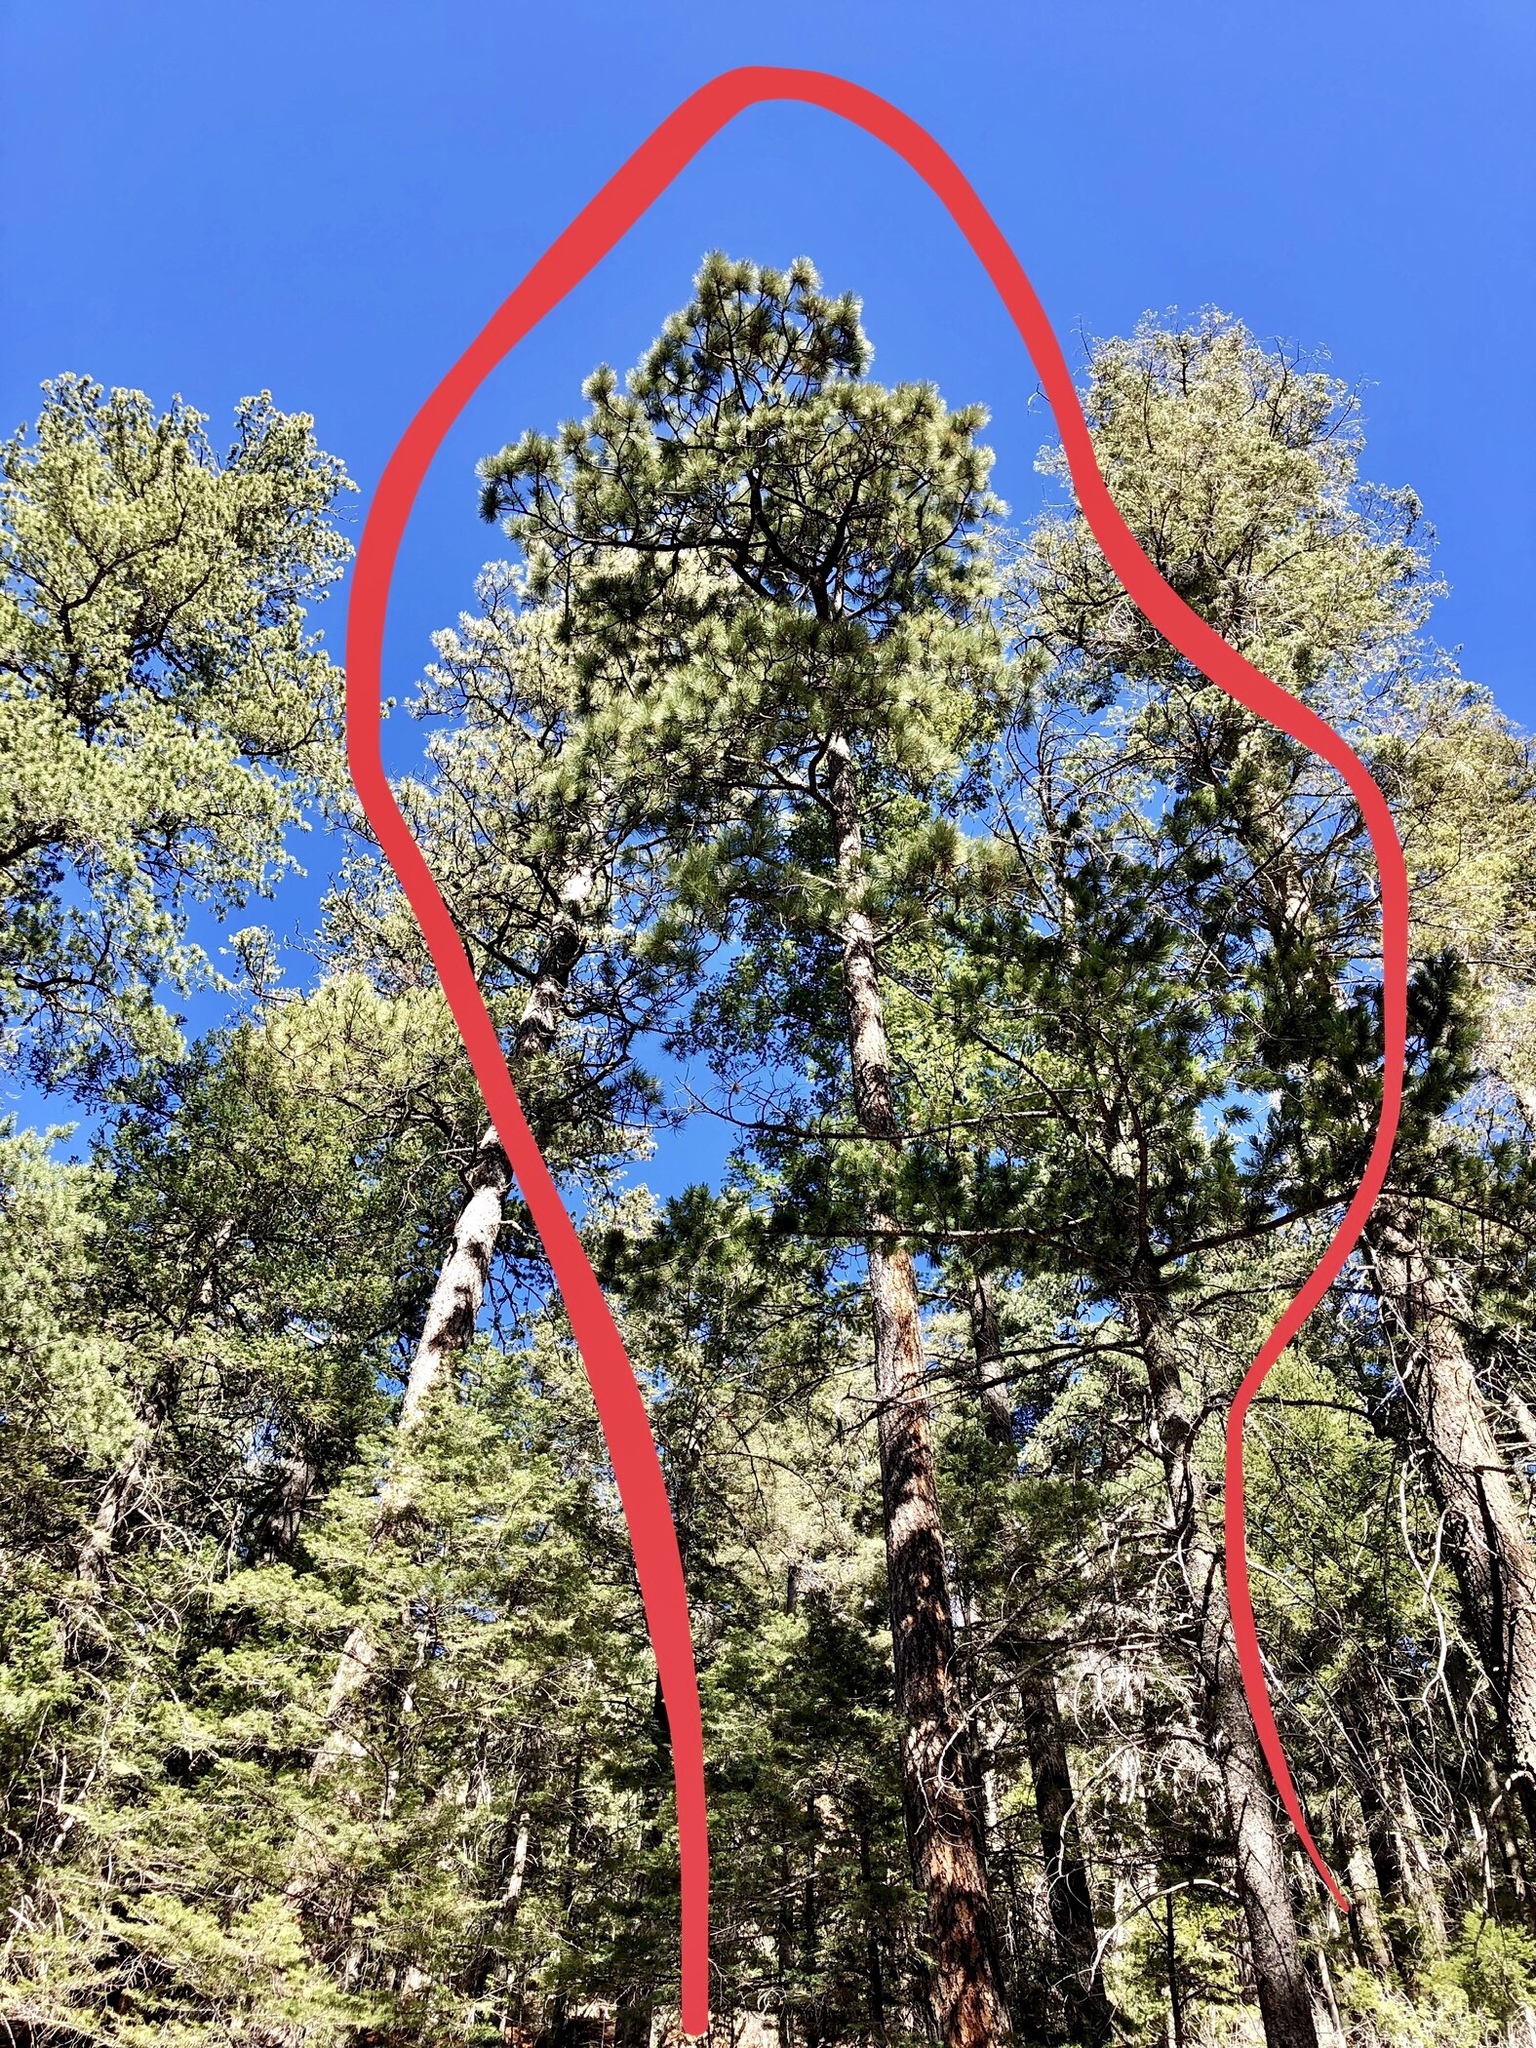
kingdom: Plantae
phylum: Tracheophyta
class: Pinopsida
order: Pinales
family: Pinaceae
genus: Pinus
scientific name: Pinus ponderosa
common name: Western yellow-pine
